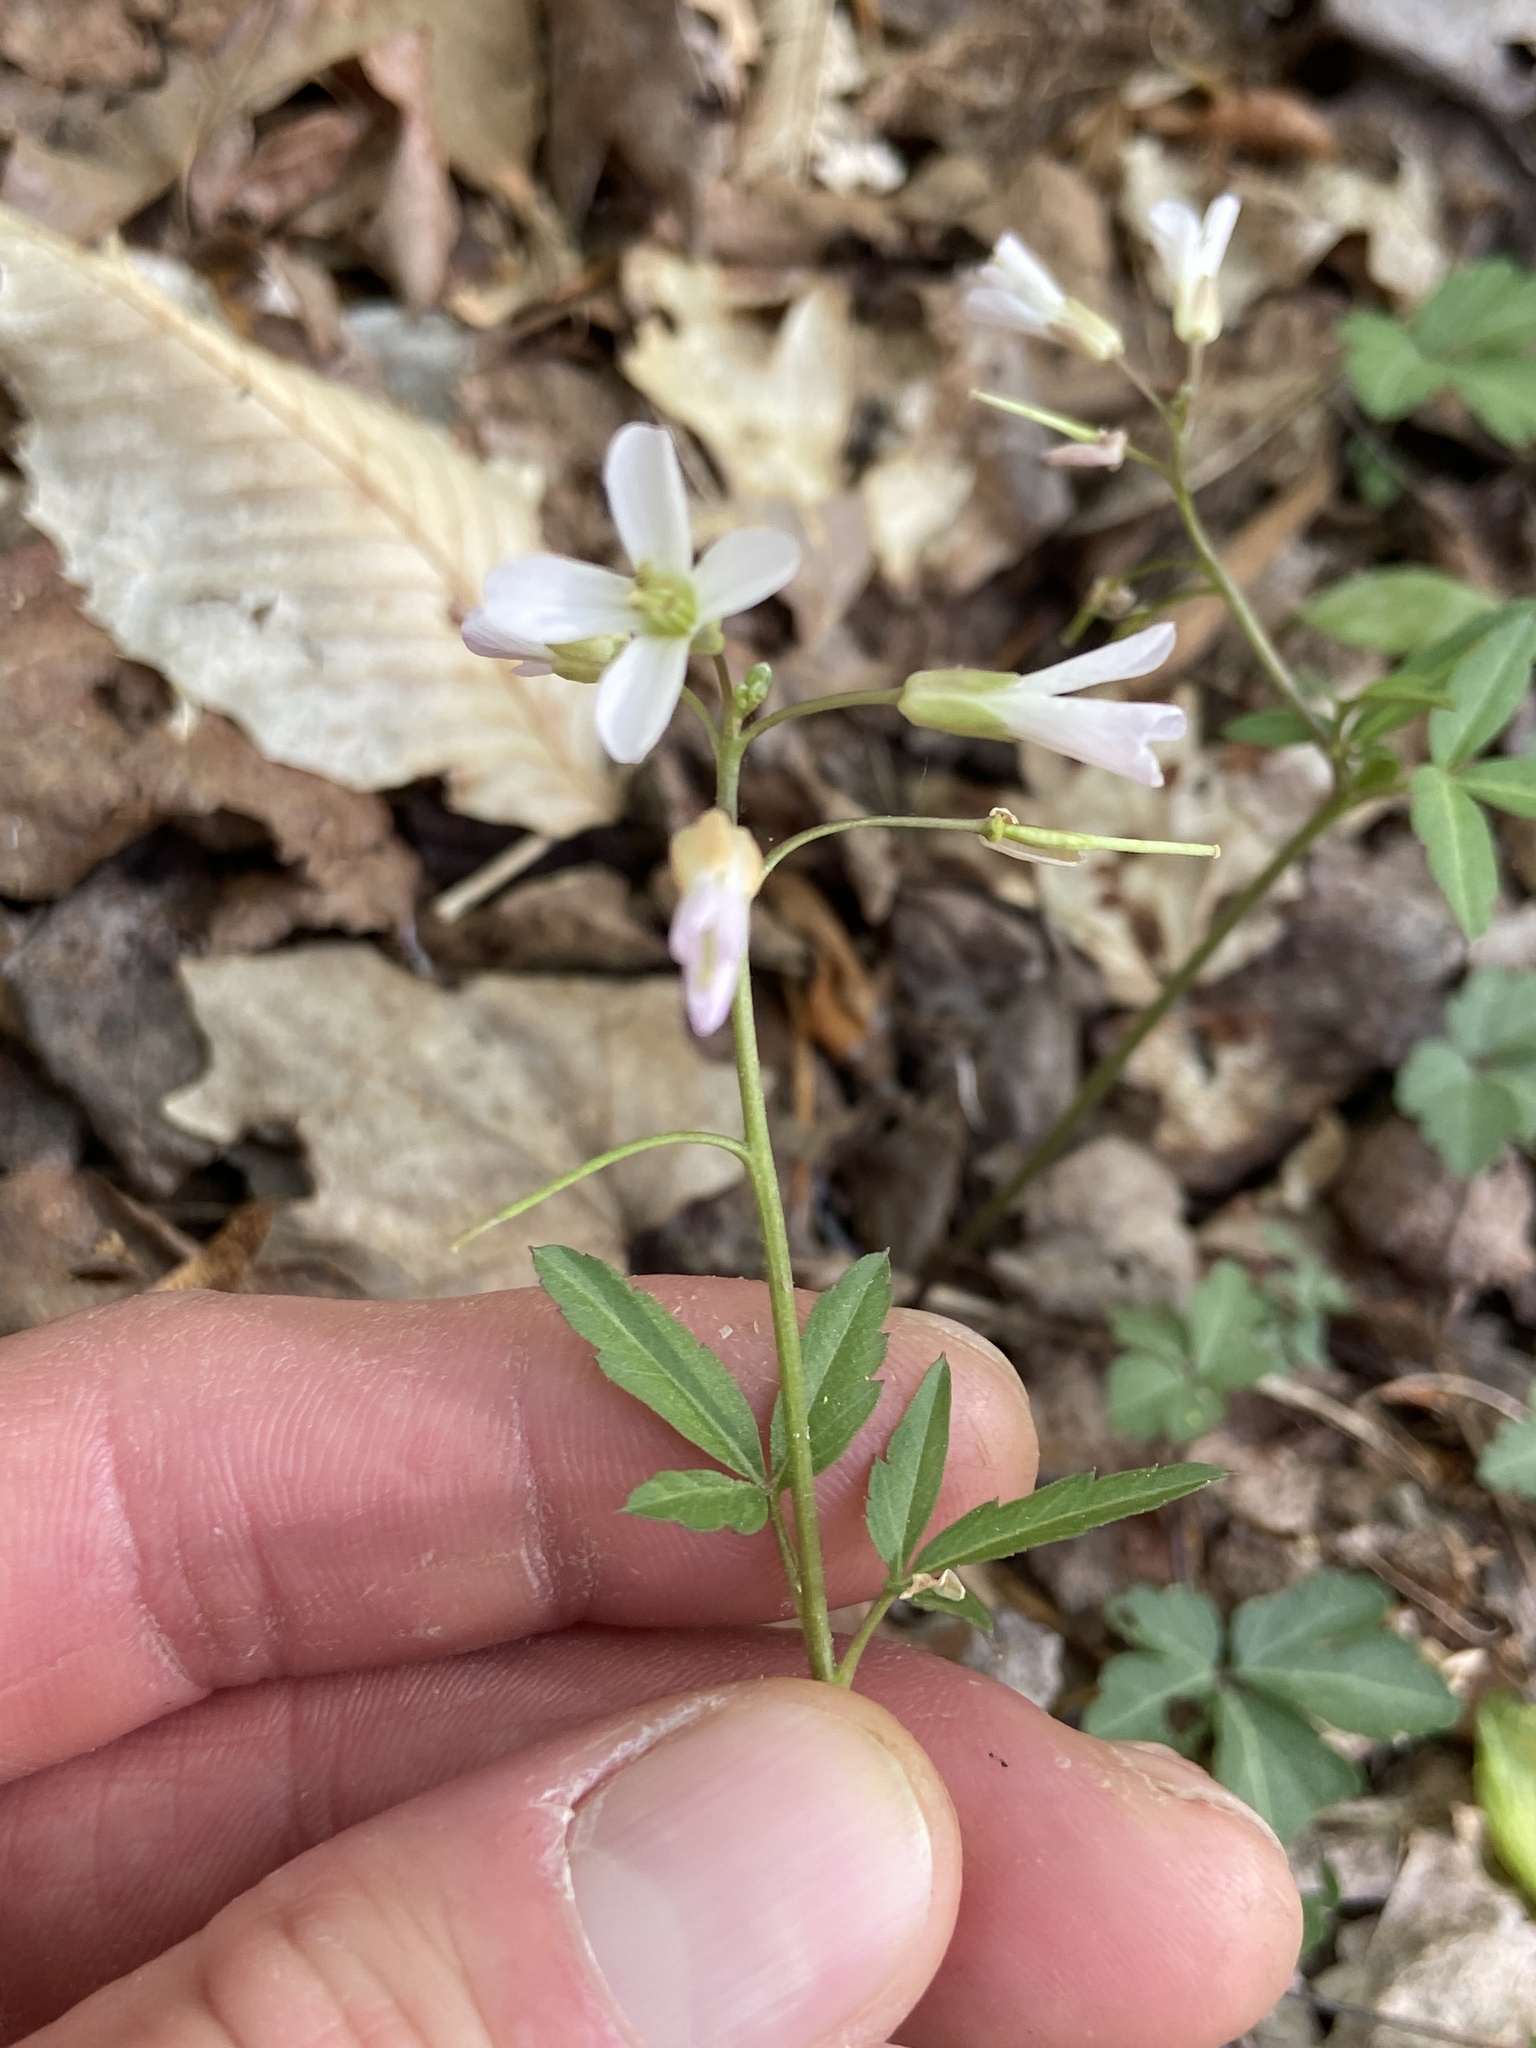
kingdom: Plantae
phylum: Tracheophyta
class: Magnoliopsida
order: Brassicales
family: Brassicaceae
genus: Cardamine
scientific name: Cardamine angustata
